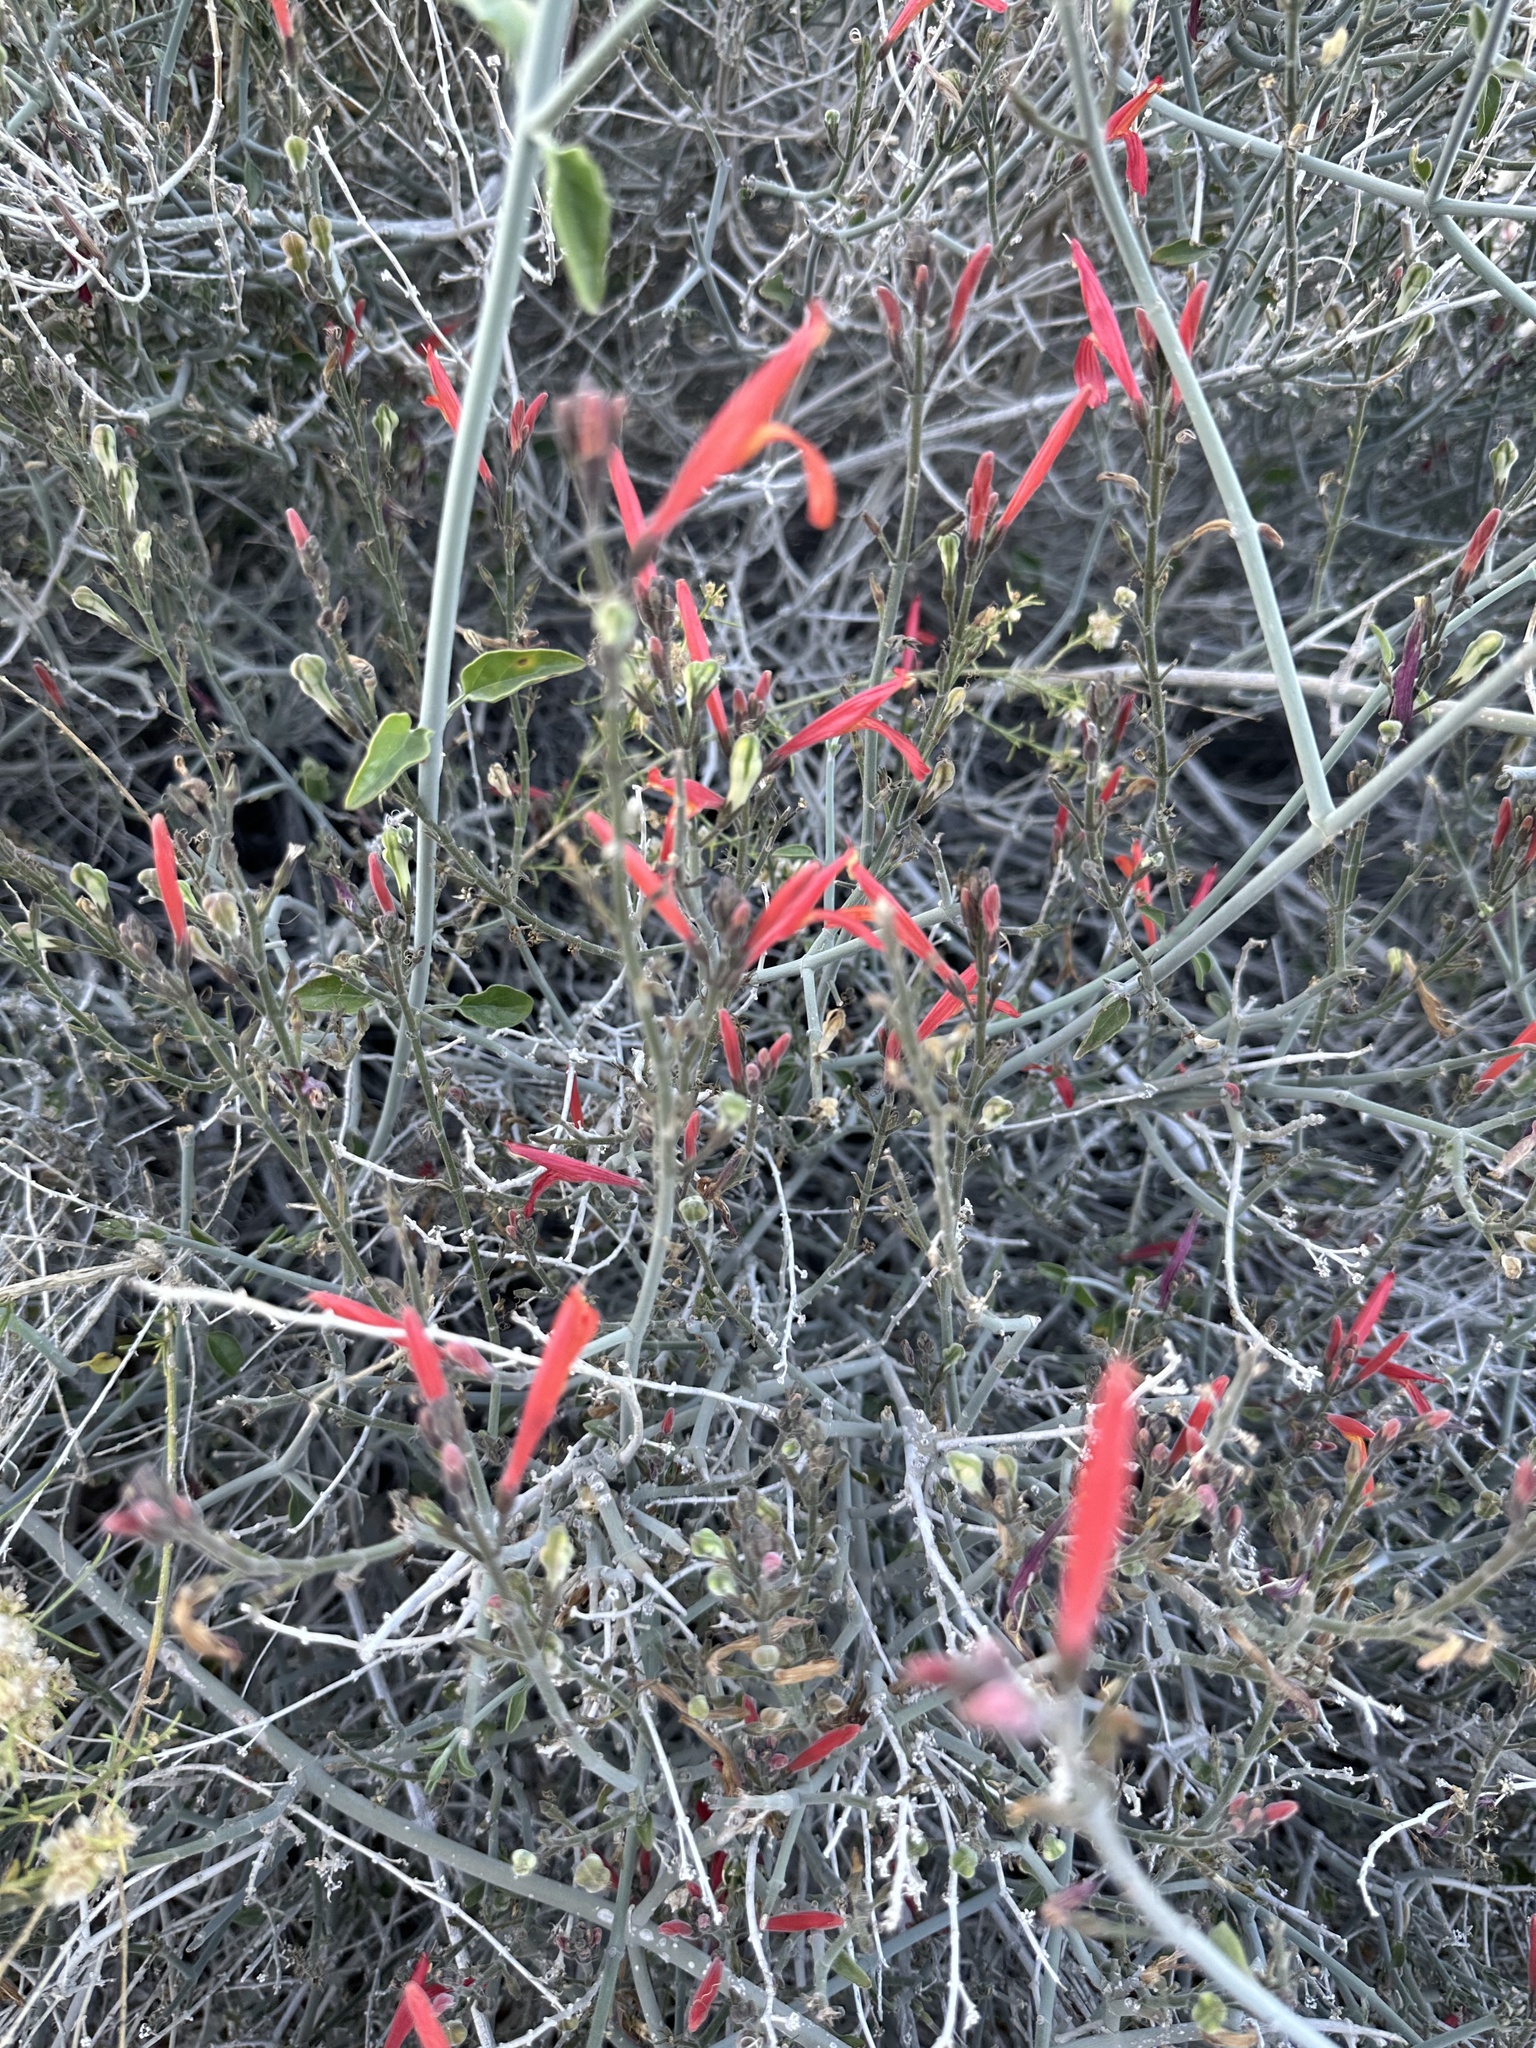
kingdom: Plantae
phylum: Tracheophyta
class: Magnoliopsida
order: Lamiales
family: Acanthaceae
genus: Justicia
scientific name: Justicia californica
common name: Chuparosa-honeysuckle
